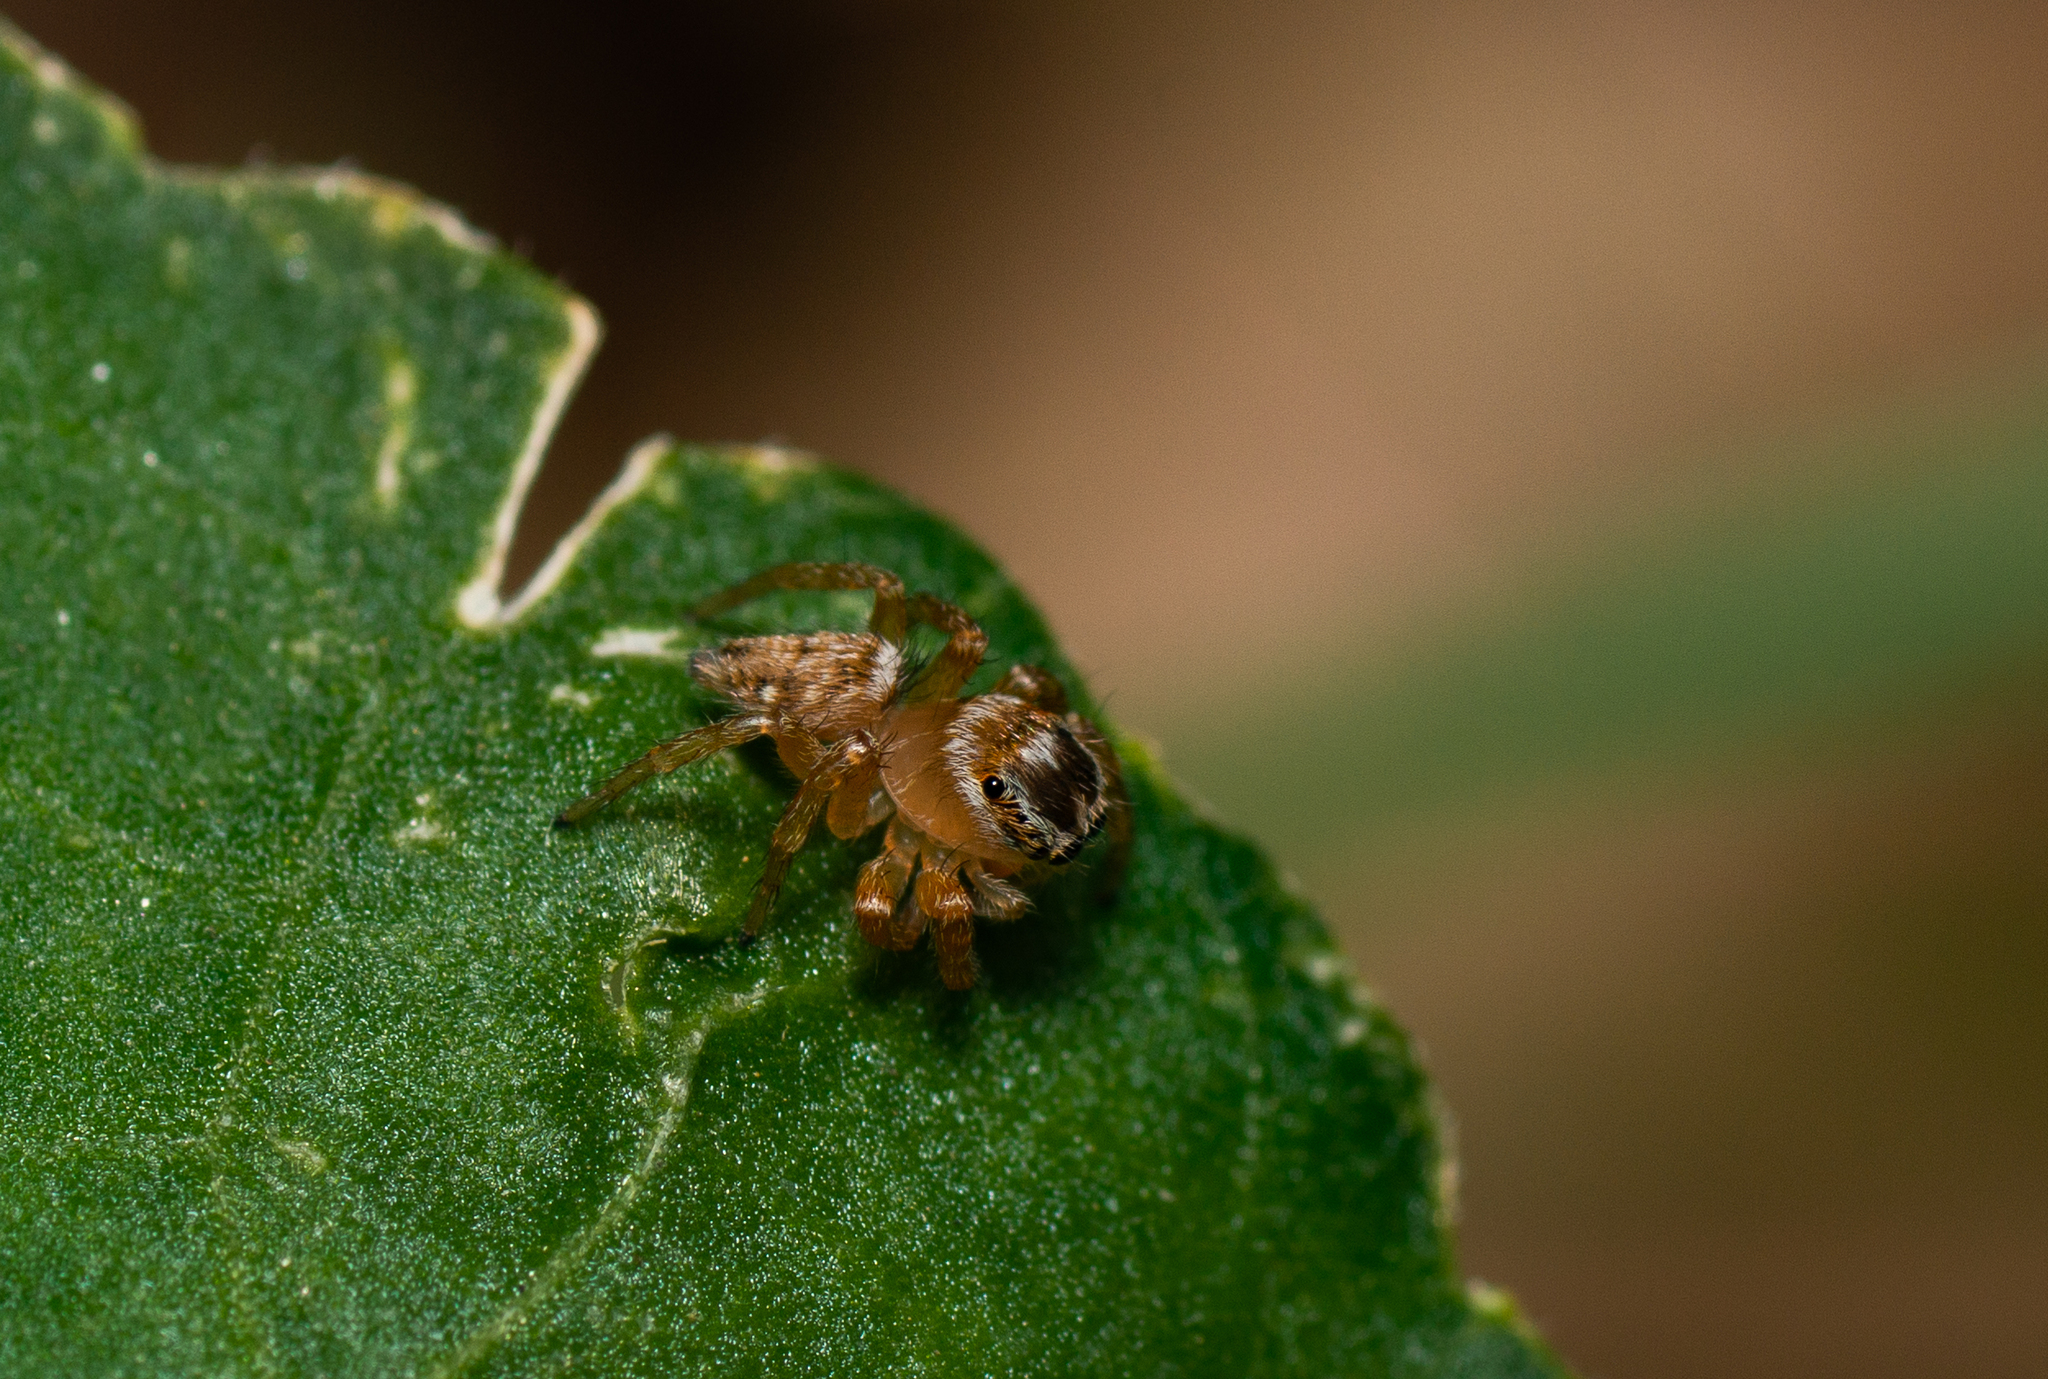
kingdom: Animalia
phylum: Arthropoda
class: Arachnida
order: Araneae
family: Salticidae
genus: Evarcha
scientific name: Evarcha jucunda
